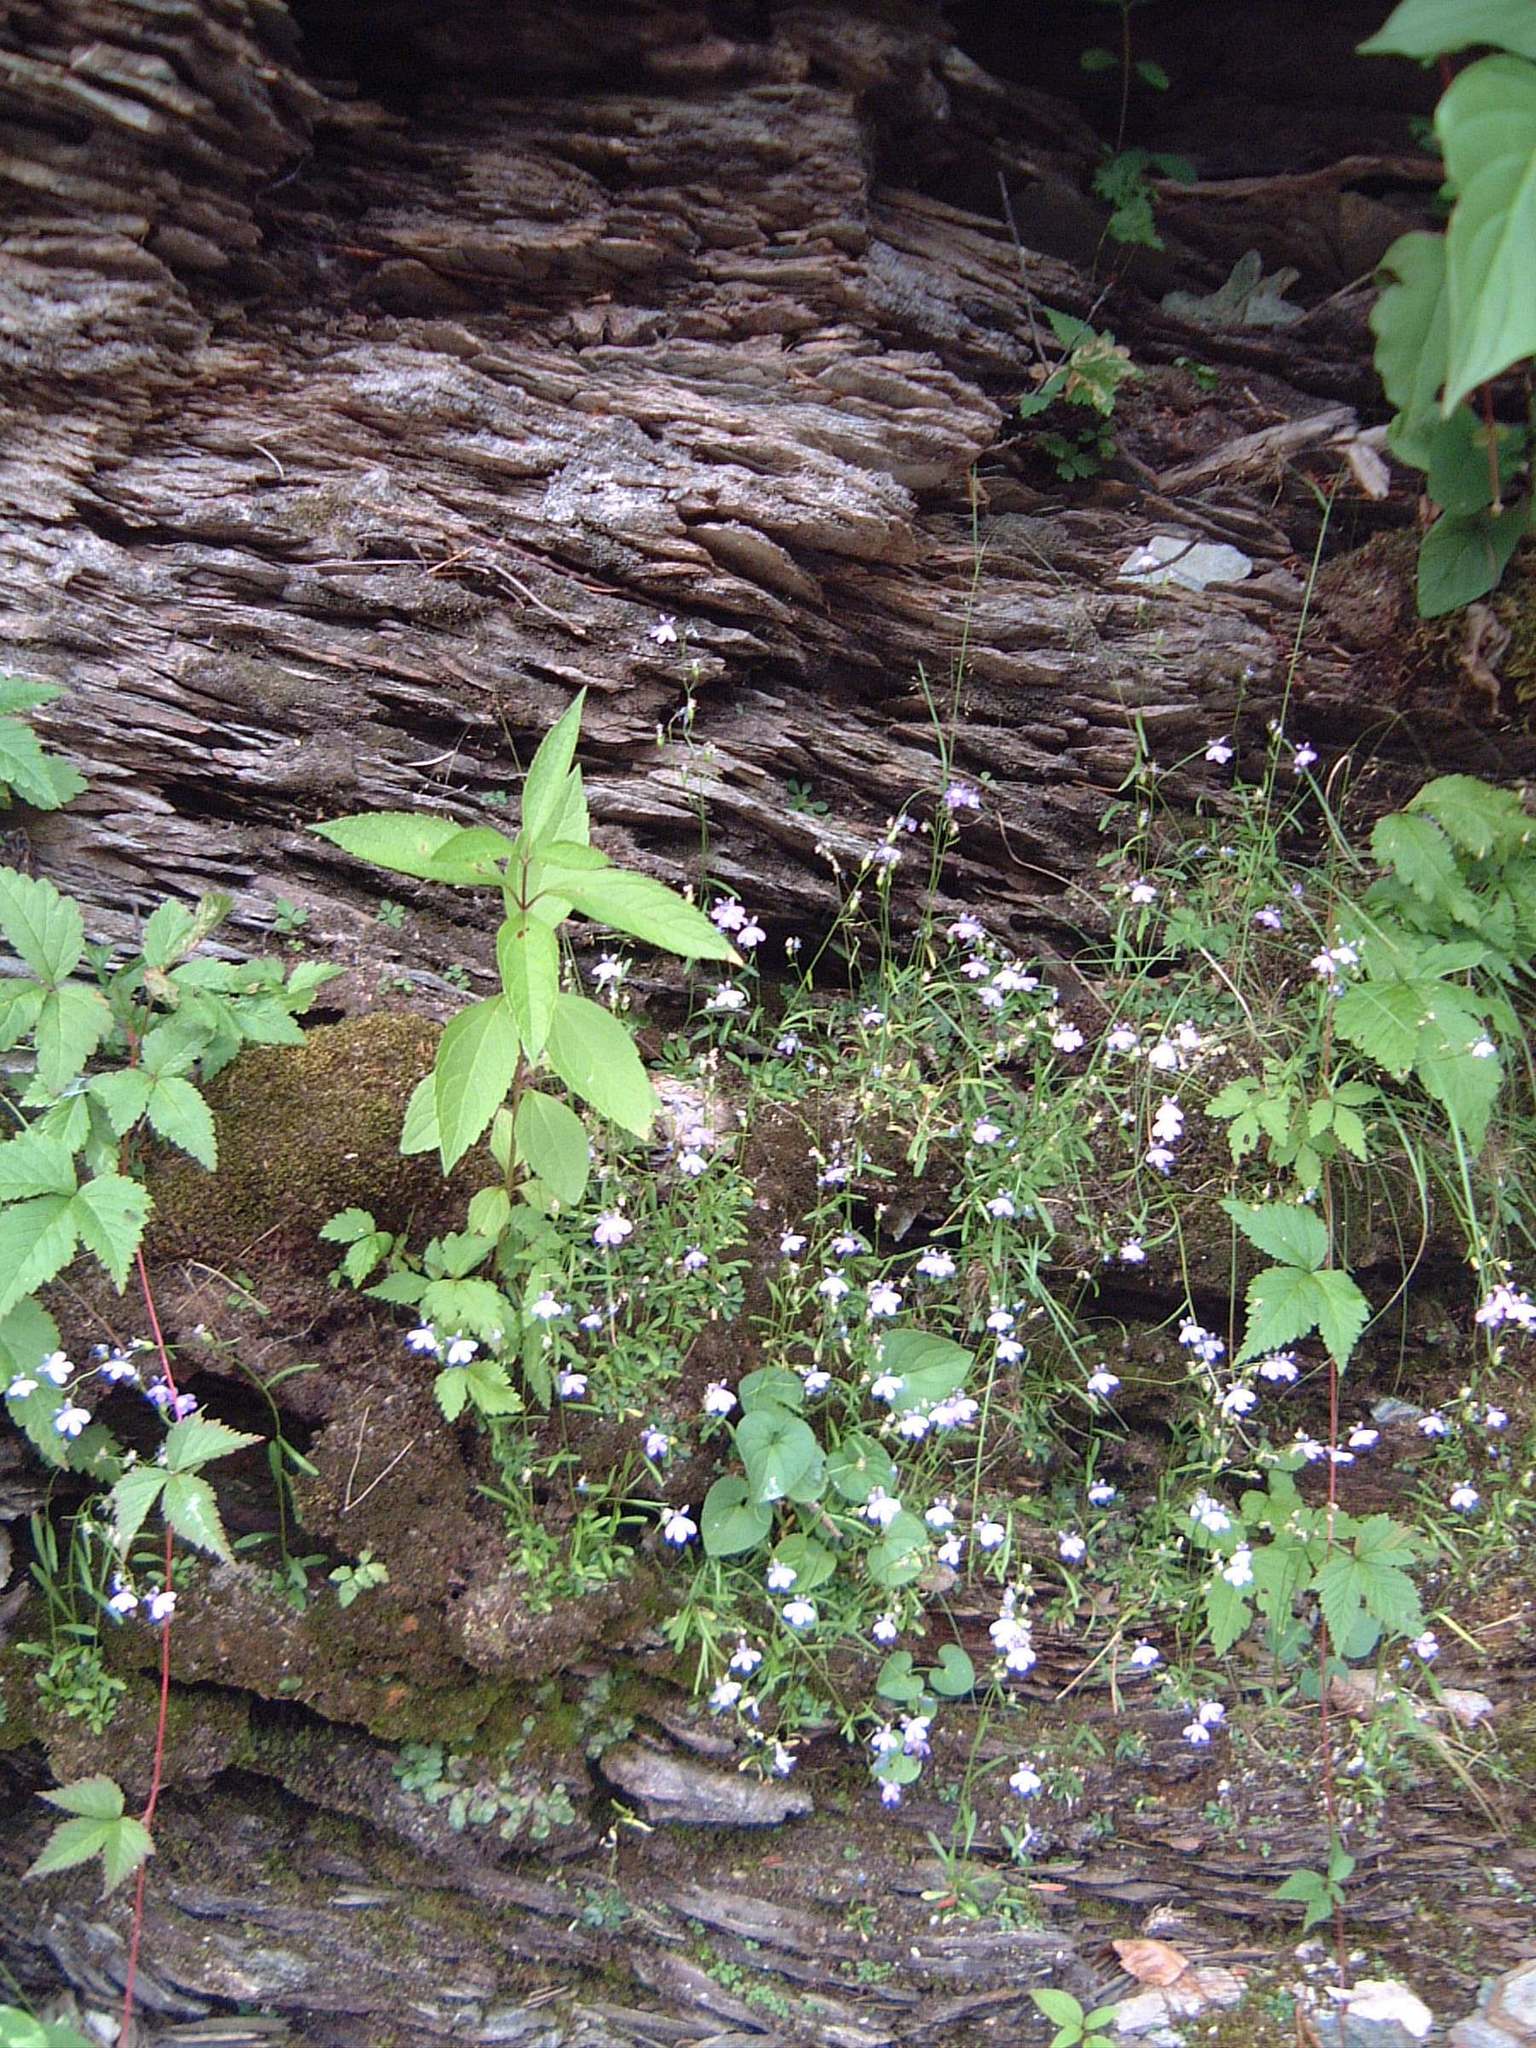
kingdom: Plantae
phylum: Tracheophyta
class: Magnoliopsida
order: Asterales
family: Campanulaceae
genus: Lobelia
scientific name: Lobelia kalmii
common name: Kalm's lobelia
